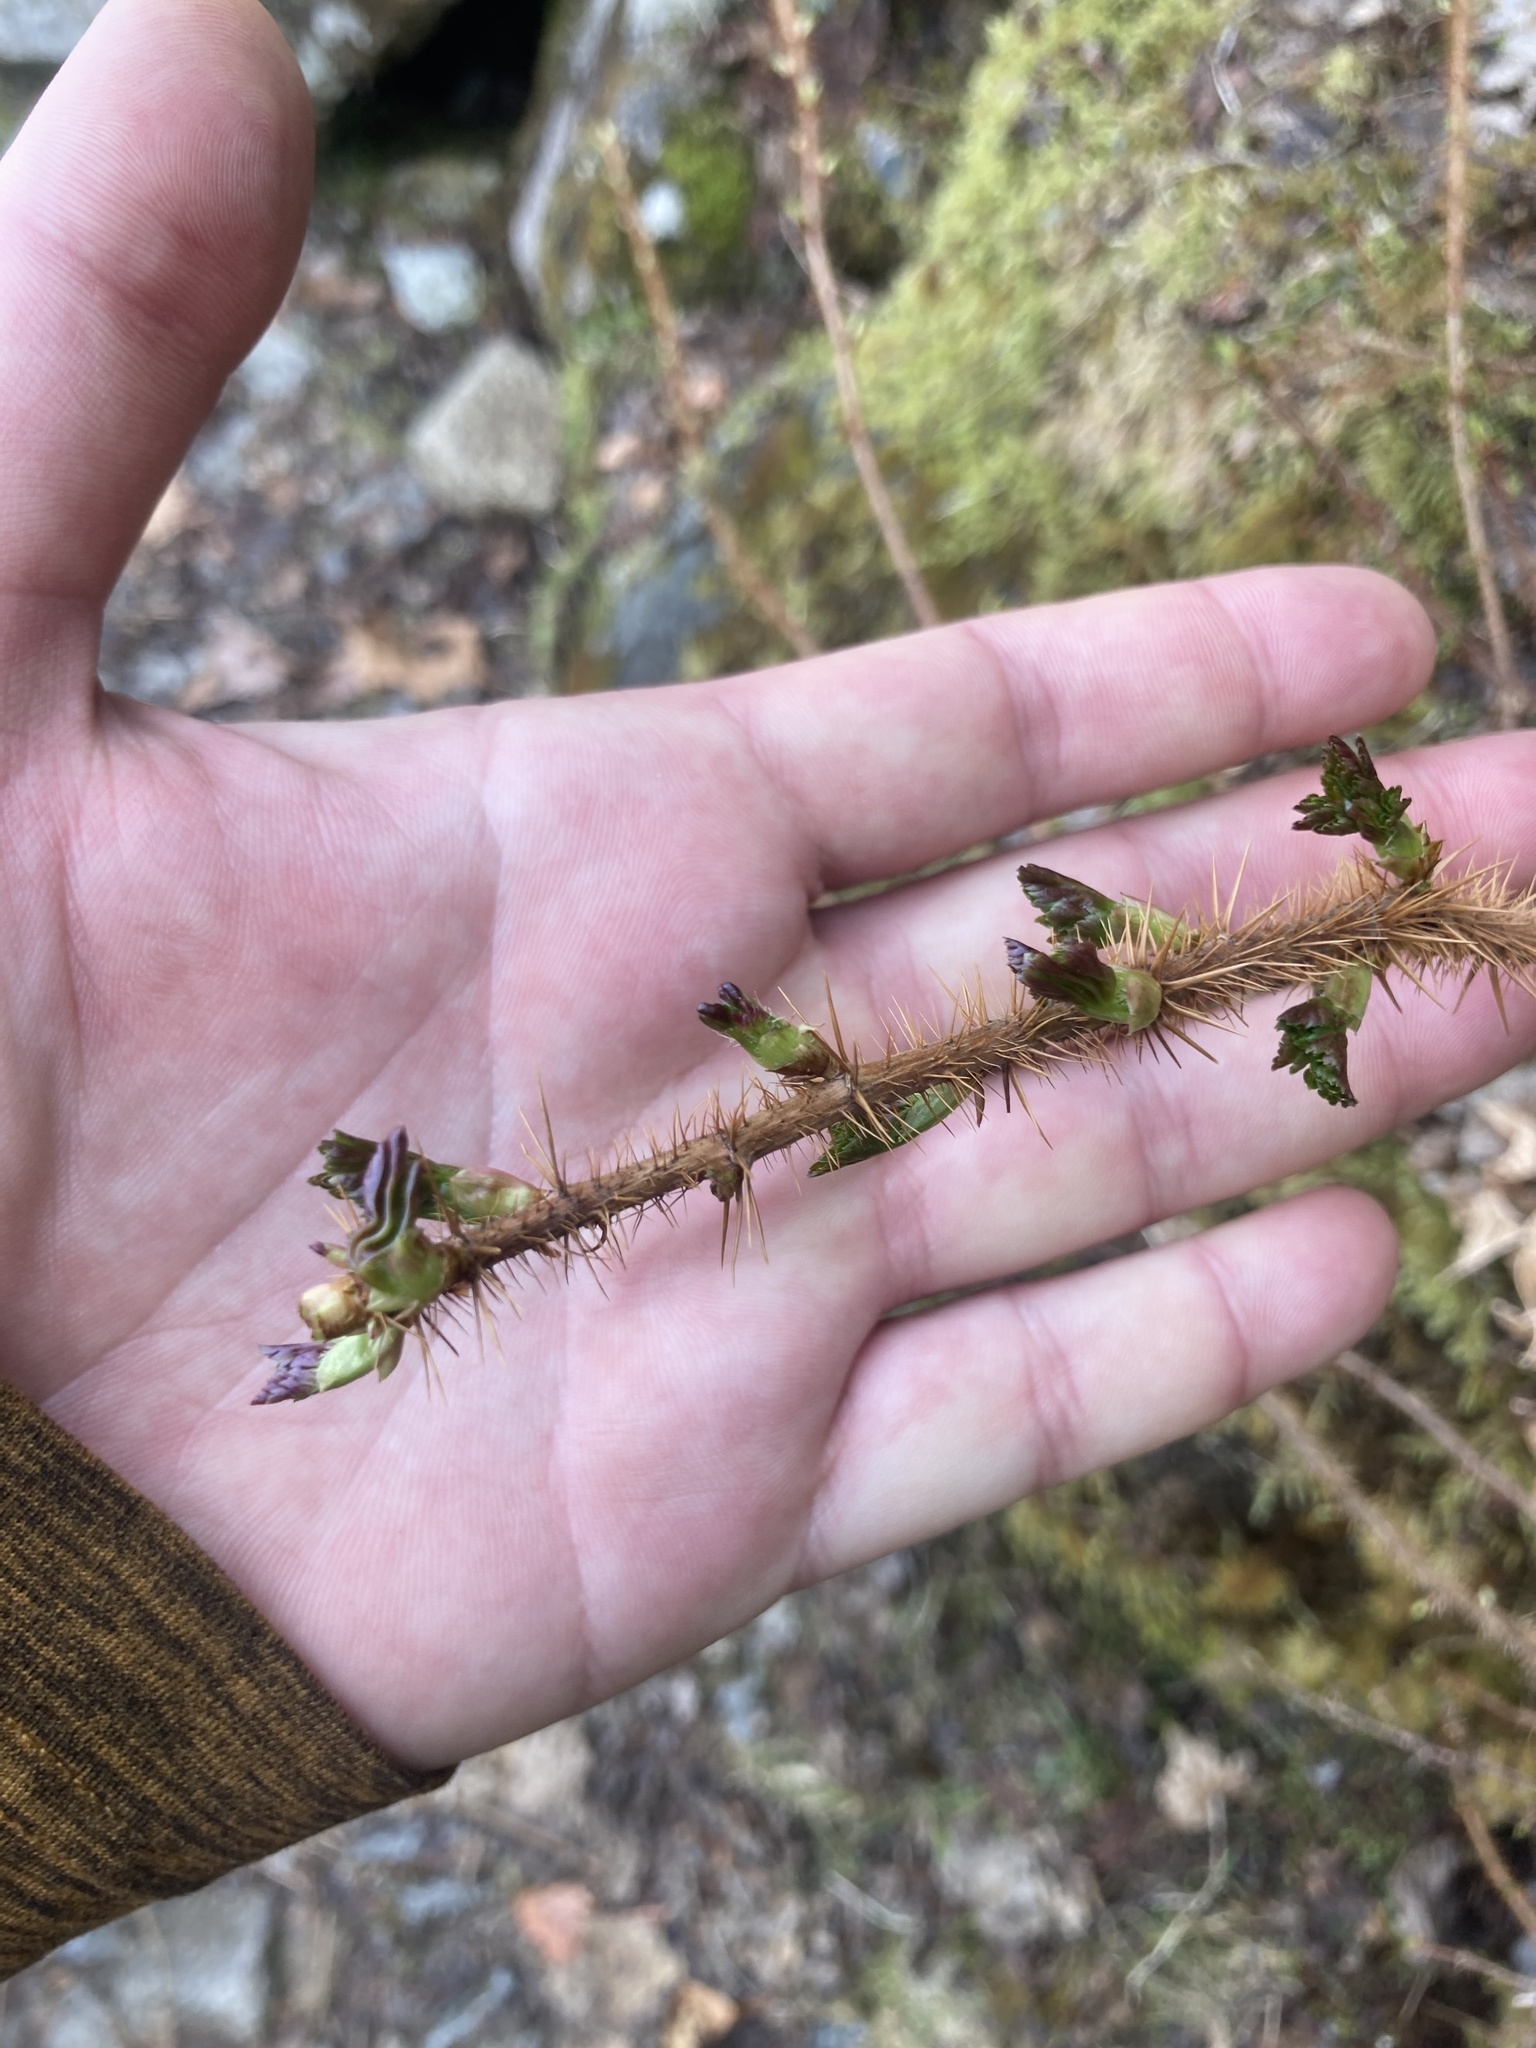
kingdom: Plantae
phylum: Tracheophyta
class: Magnoliopsida
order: Saxifragales
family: Grossulariaceae
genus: Ribes
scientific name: Ribes lacustre
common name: Black gooseberry
